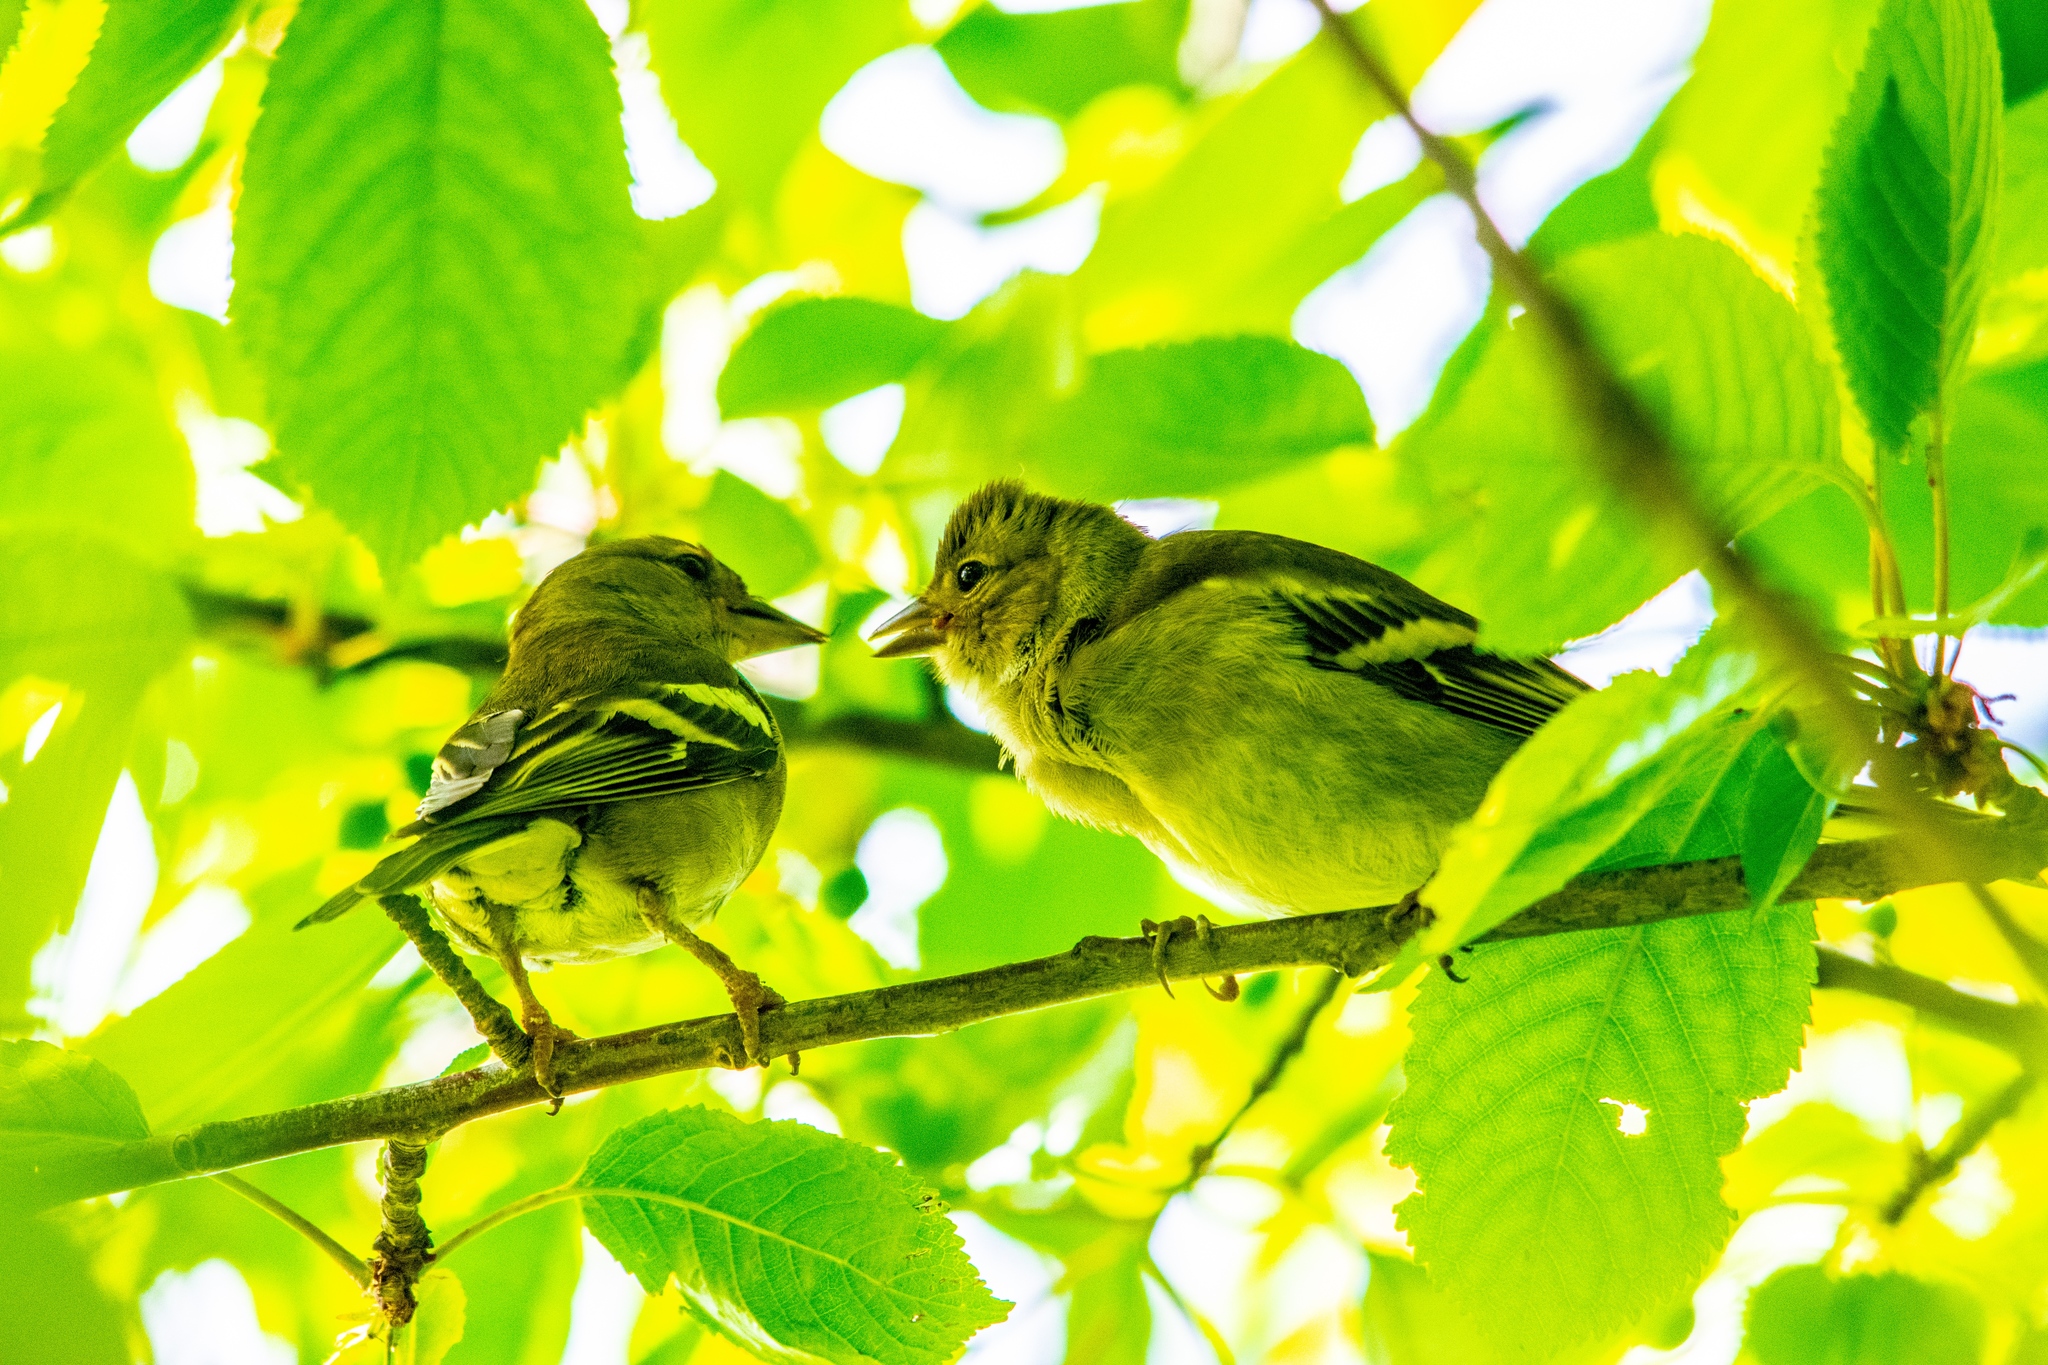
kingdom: Animalia
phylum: Chordata
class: Aves
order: Passeriformes
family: Fringillidae
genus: Fringilla
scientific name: Fringilla coelebs
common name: Common chaffinch
